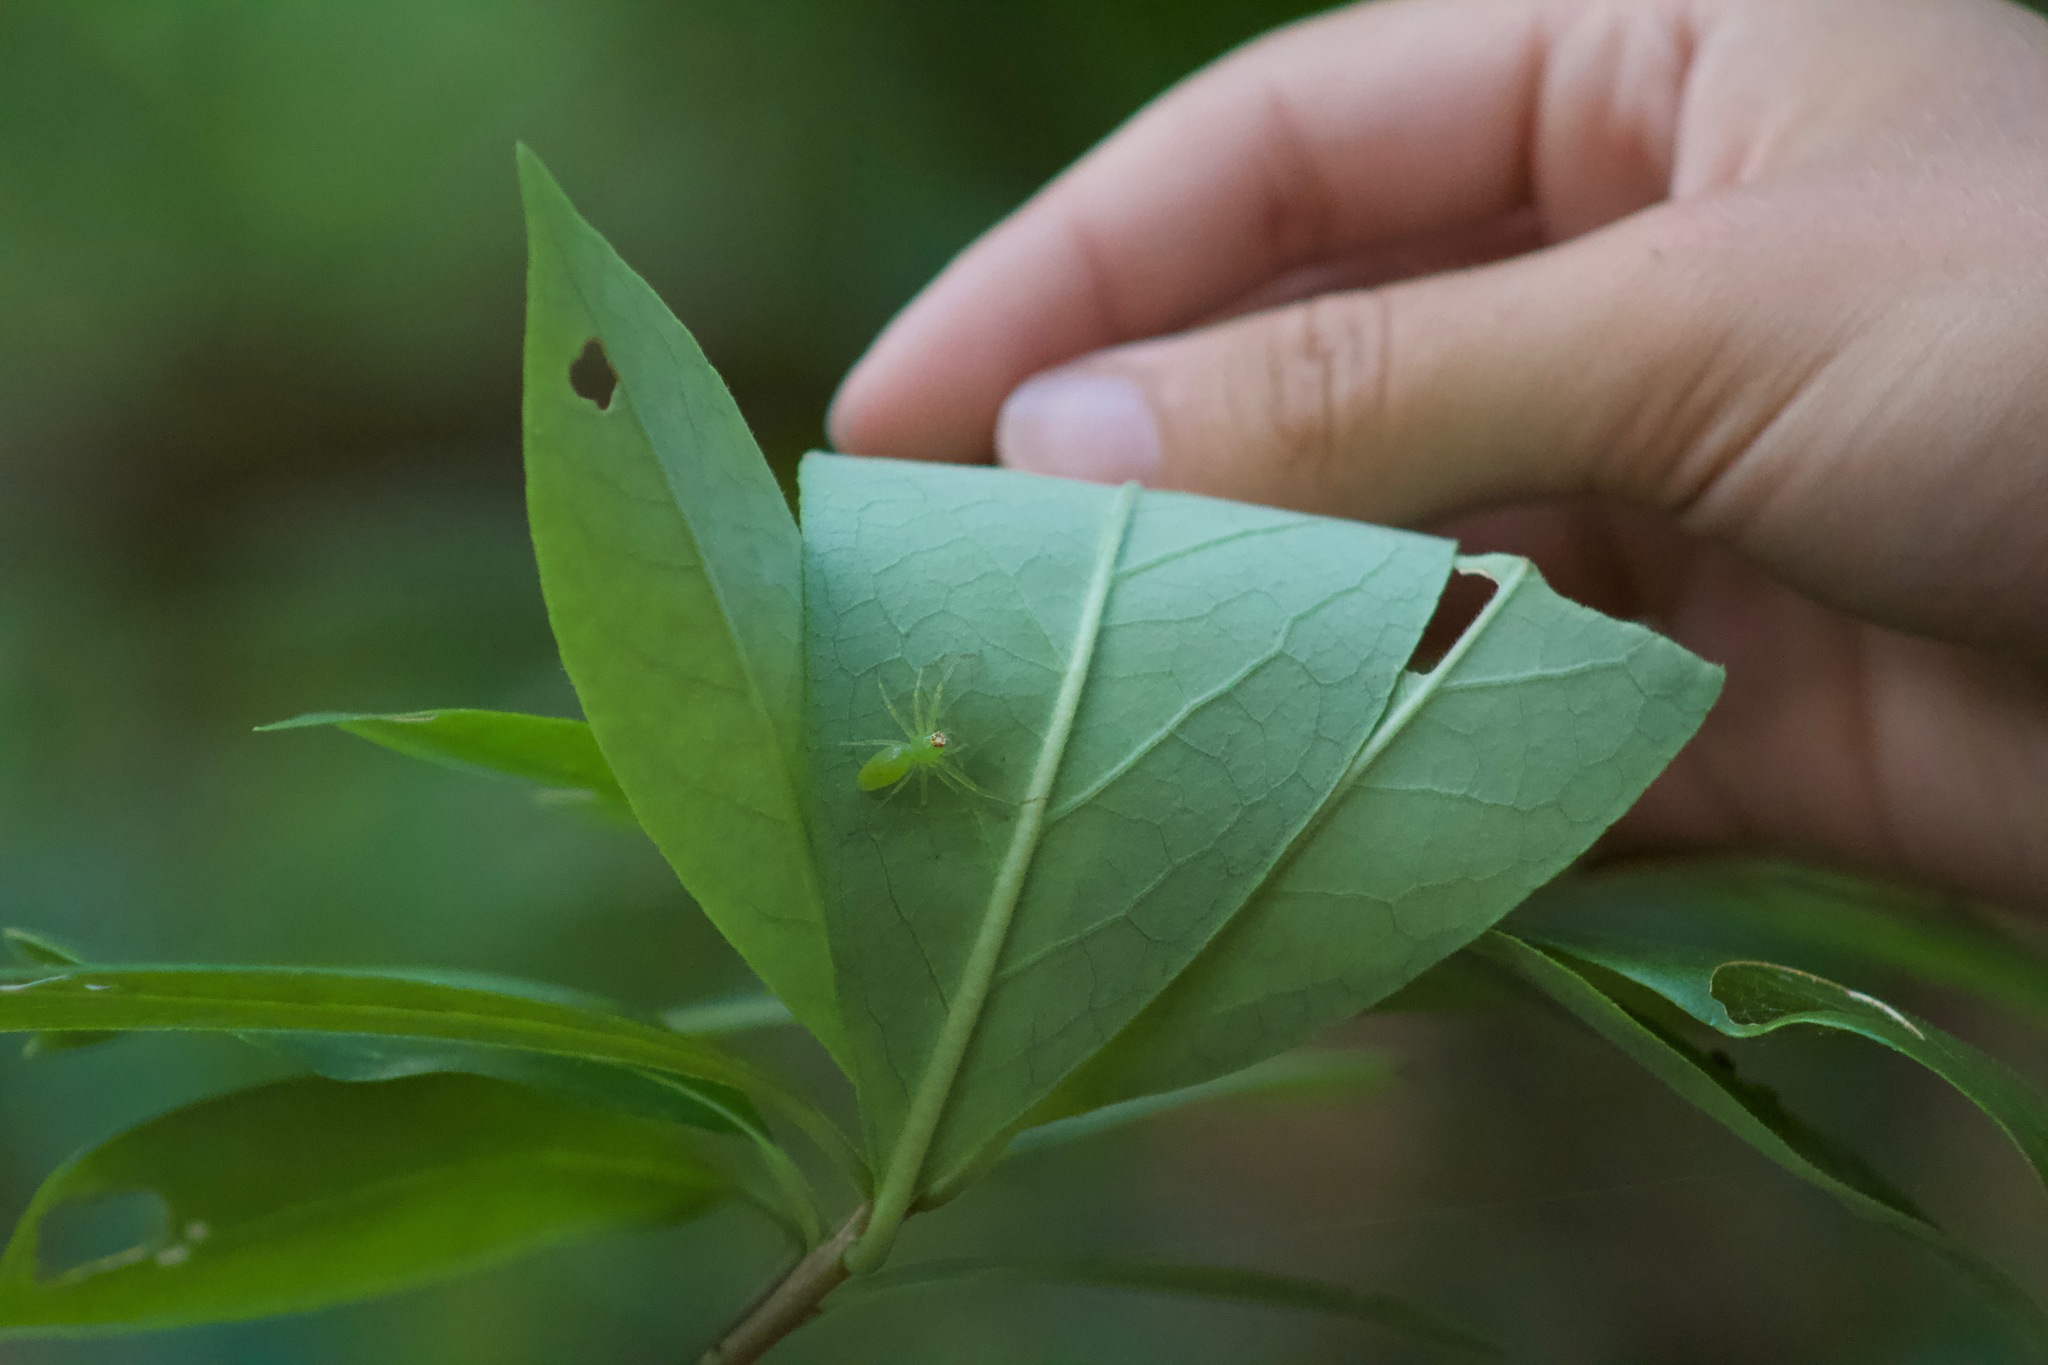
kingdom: Animalia
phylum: Arthropoda
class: Arachnida
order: Araneae
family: Salticidae
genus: Lyssomanes
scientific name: Lyssomanes viridis
